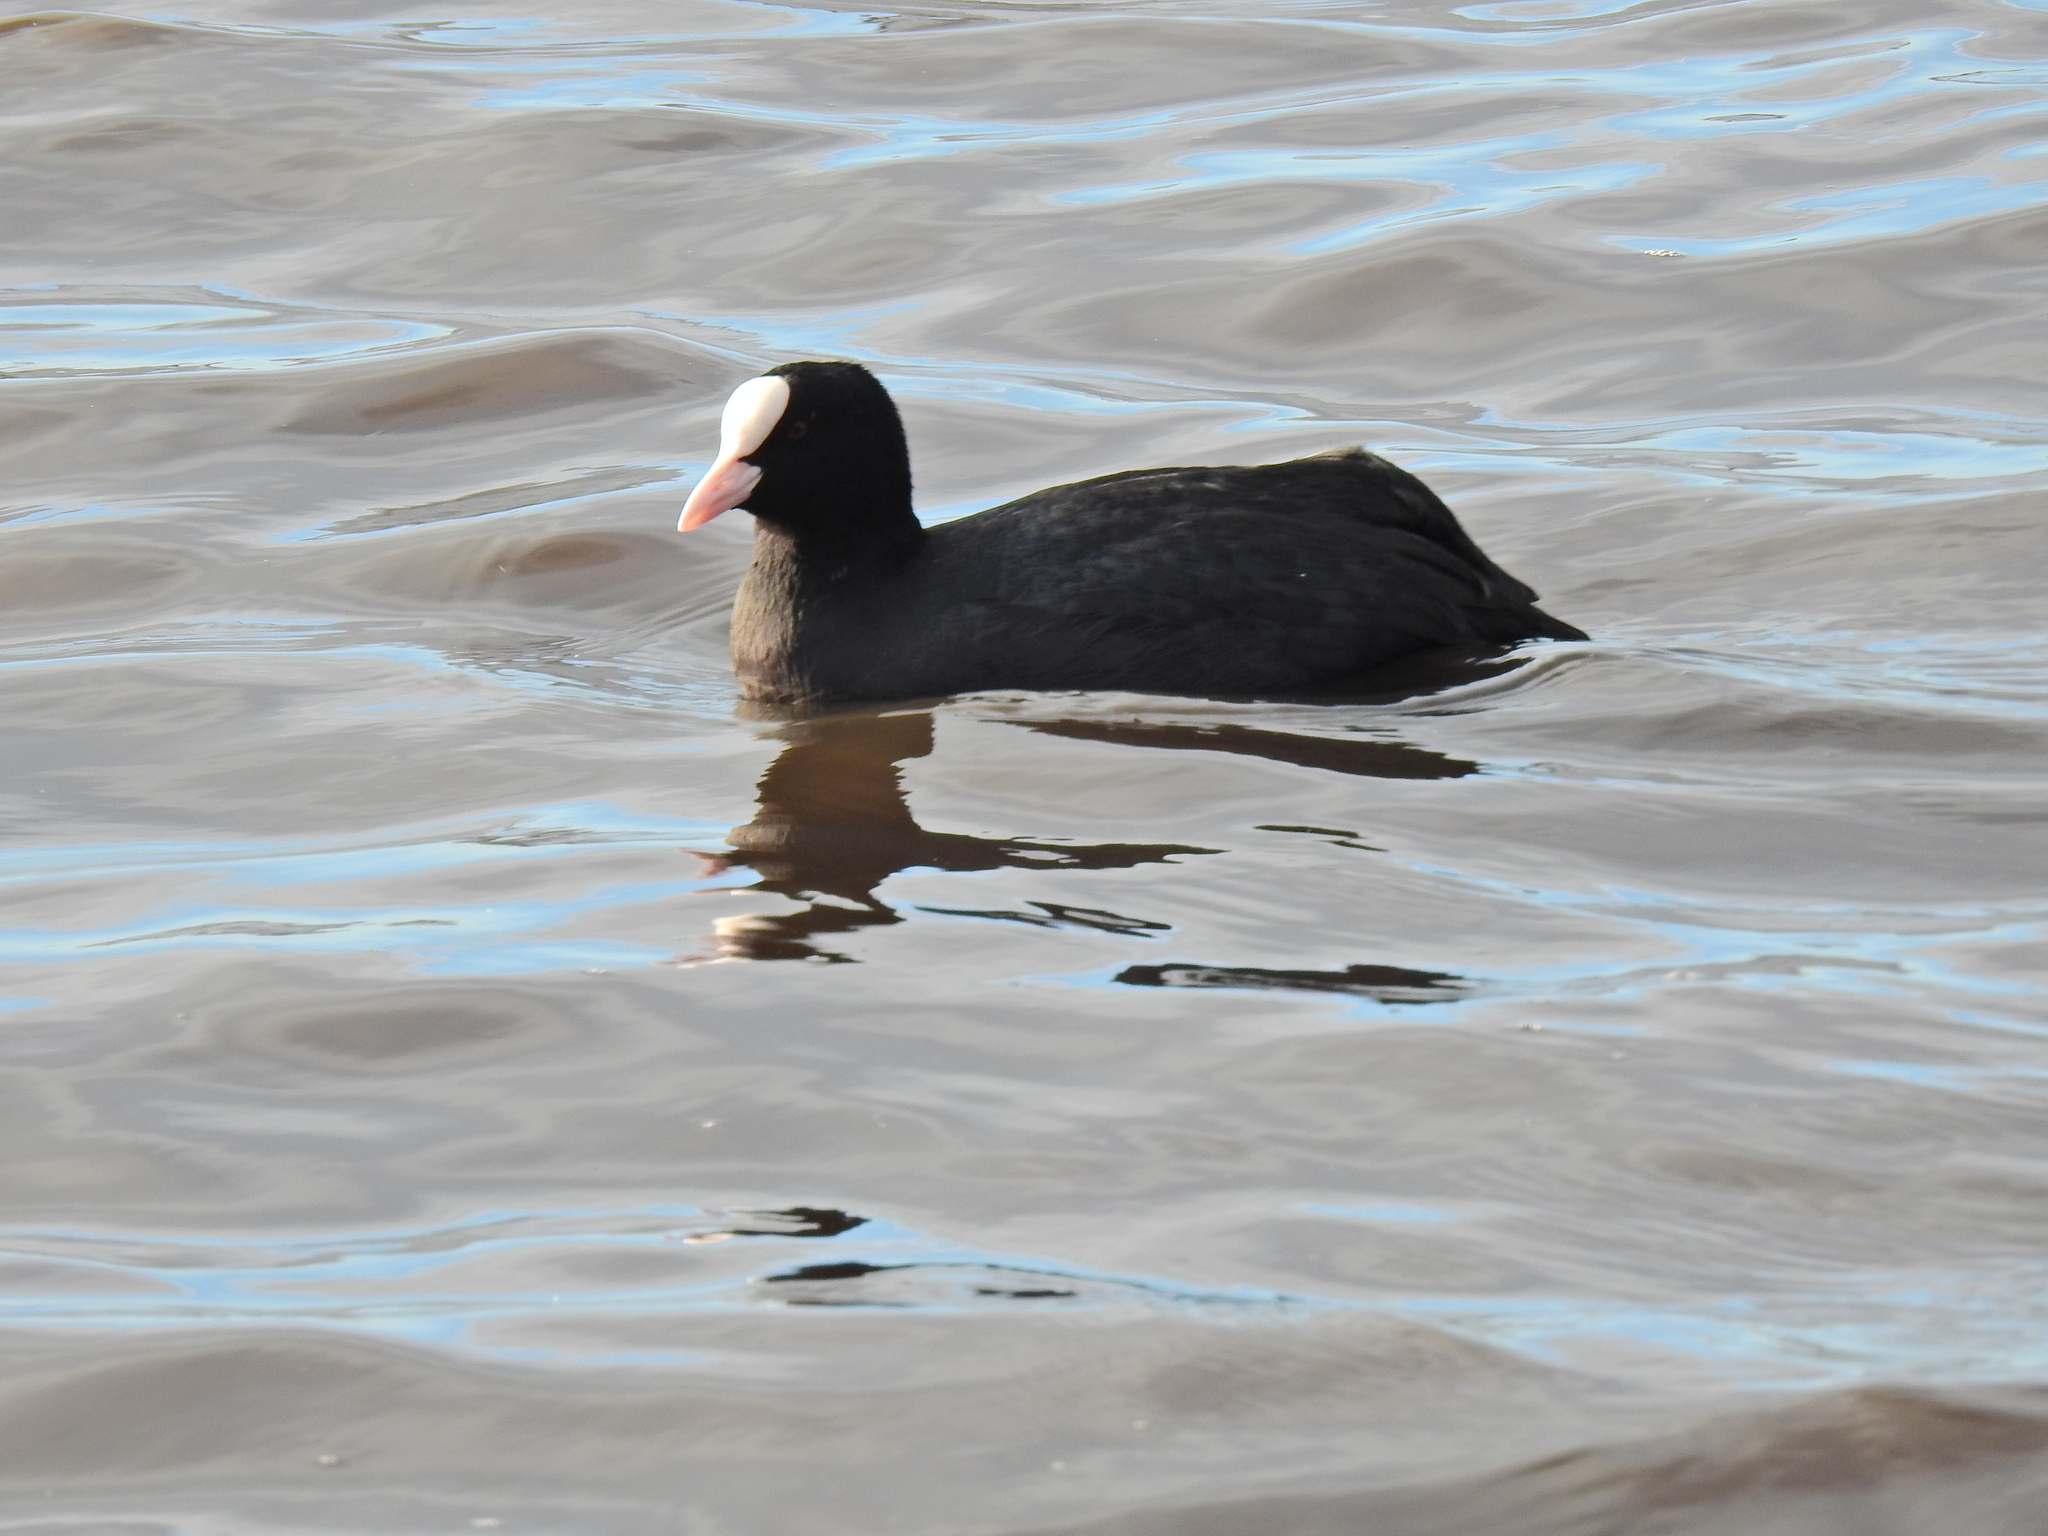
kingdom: Animalia
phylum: Chordata
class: Aves
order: Gruiformes
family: Rallidae
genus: Fulica
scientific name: Fulica atra
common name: Eurasian coot
